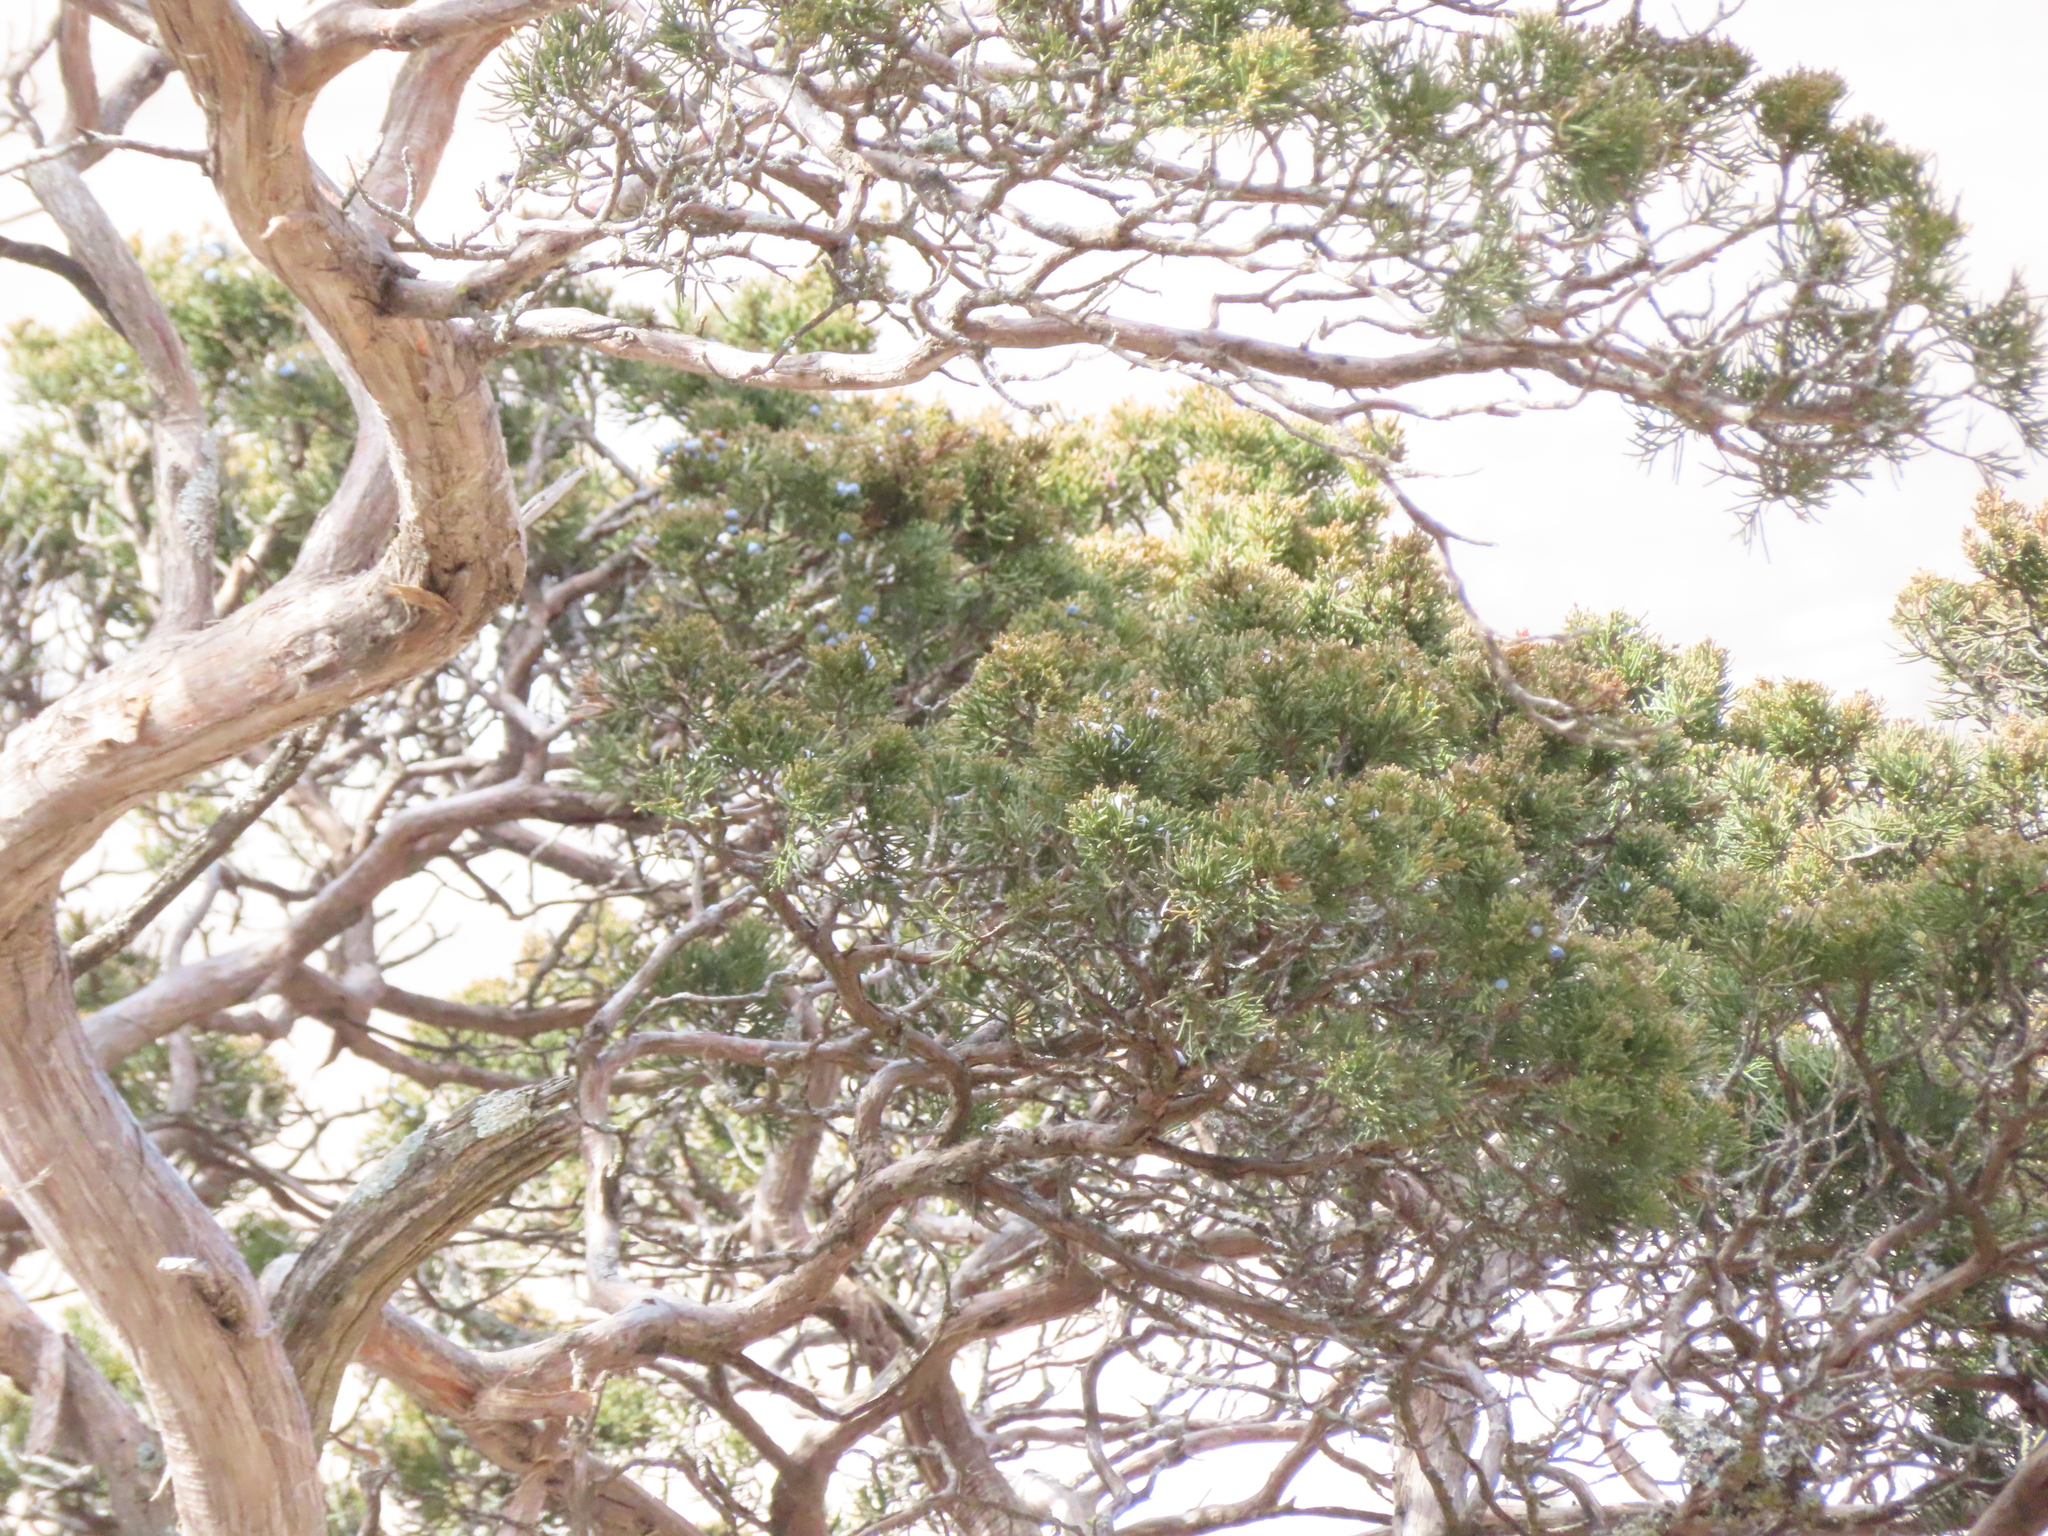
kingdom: Plantae
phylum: Tracheophyta
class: Pinopsida
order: Pinales
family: Cupressaceae
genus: Juniperus
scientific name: Juniperus virginiana
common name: Red juniper
